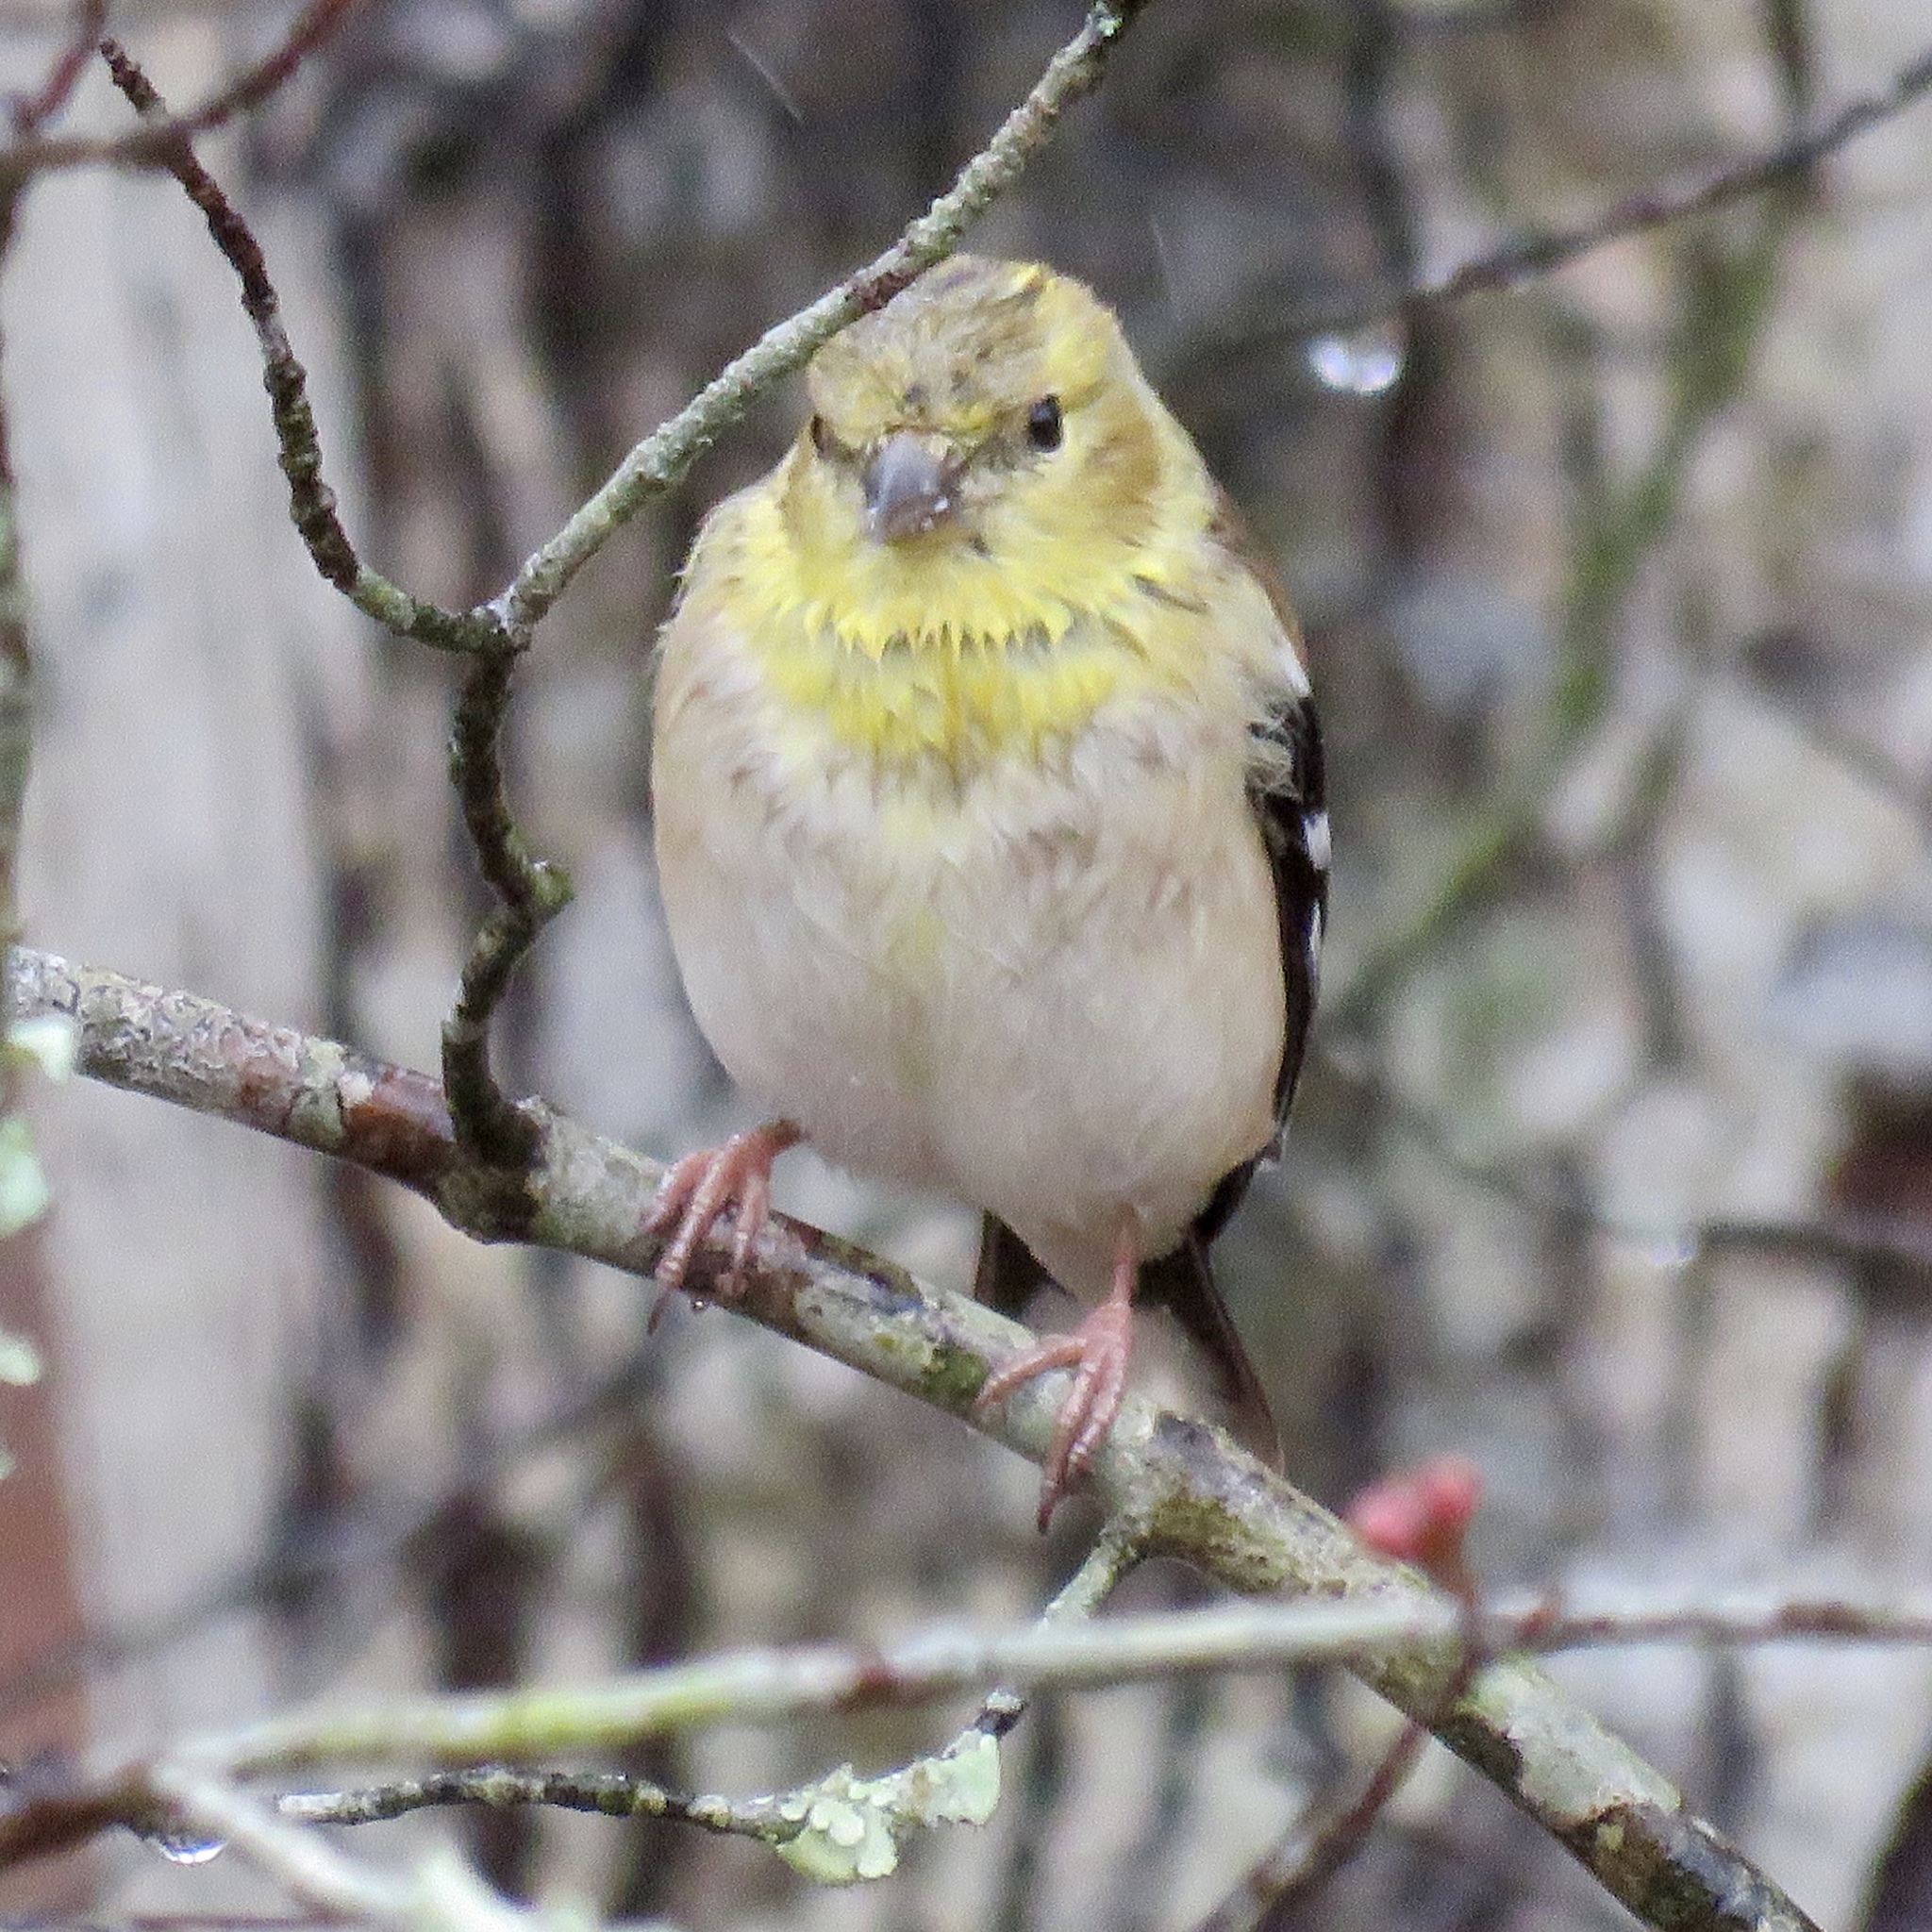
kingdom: Animalia
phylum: Chordata
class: Aves
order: Passeriformes
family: Fringillidae
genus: Spinus
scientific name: Spinus tristis
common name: American goldfinch
